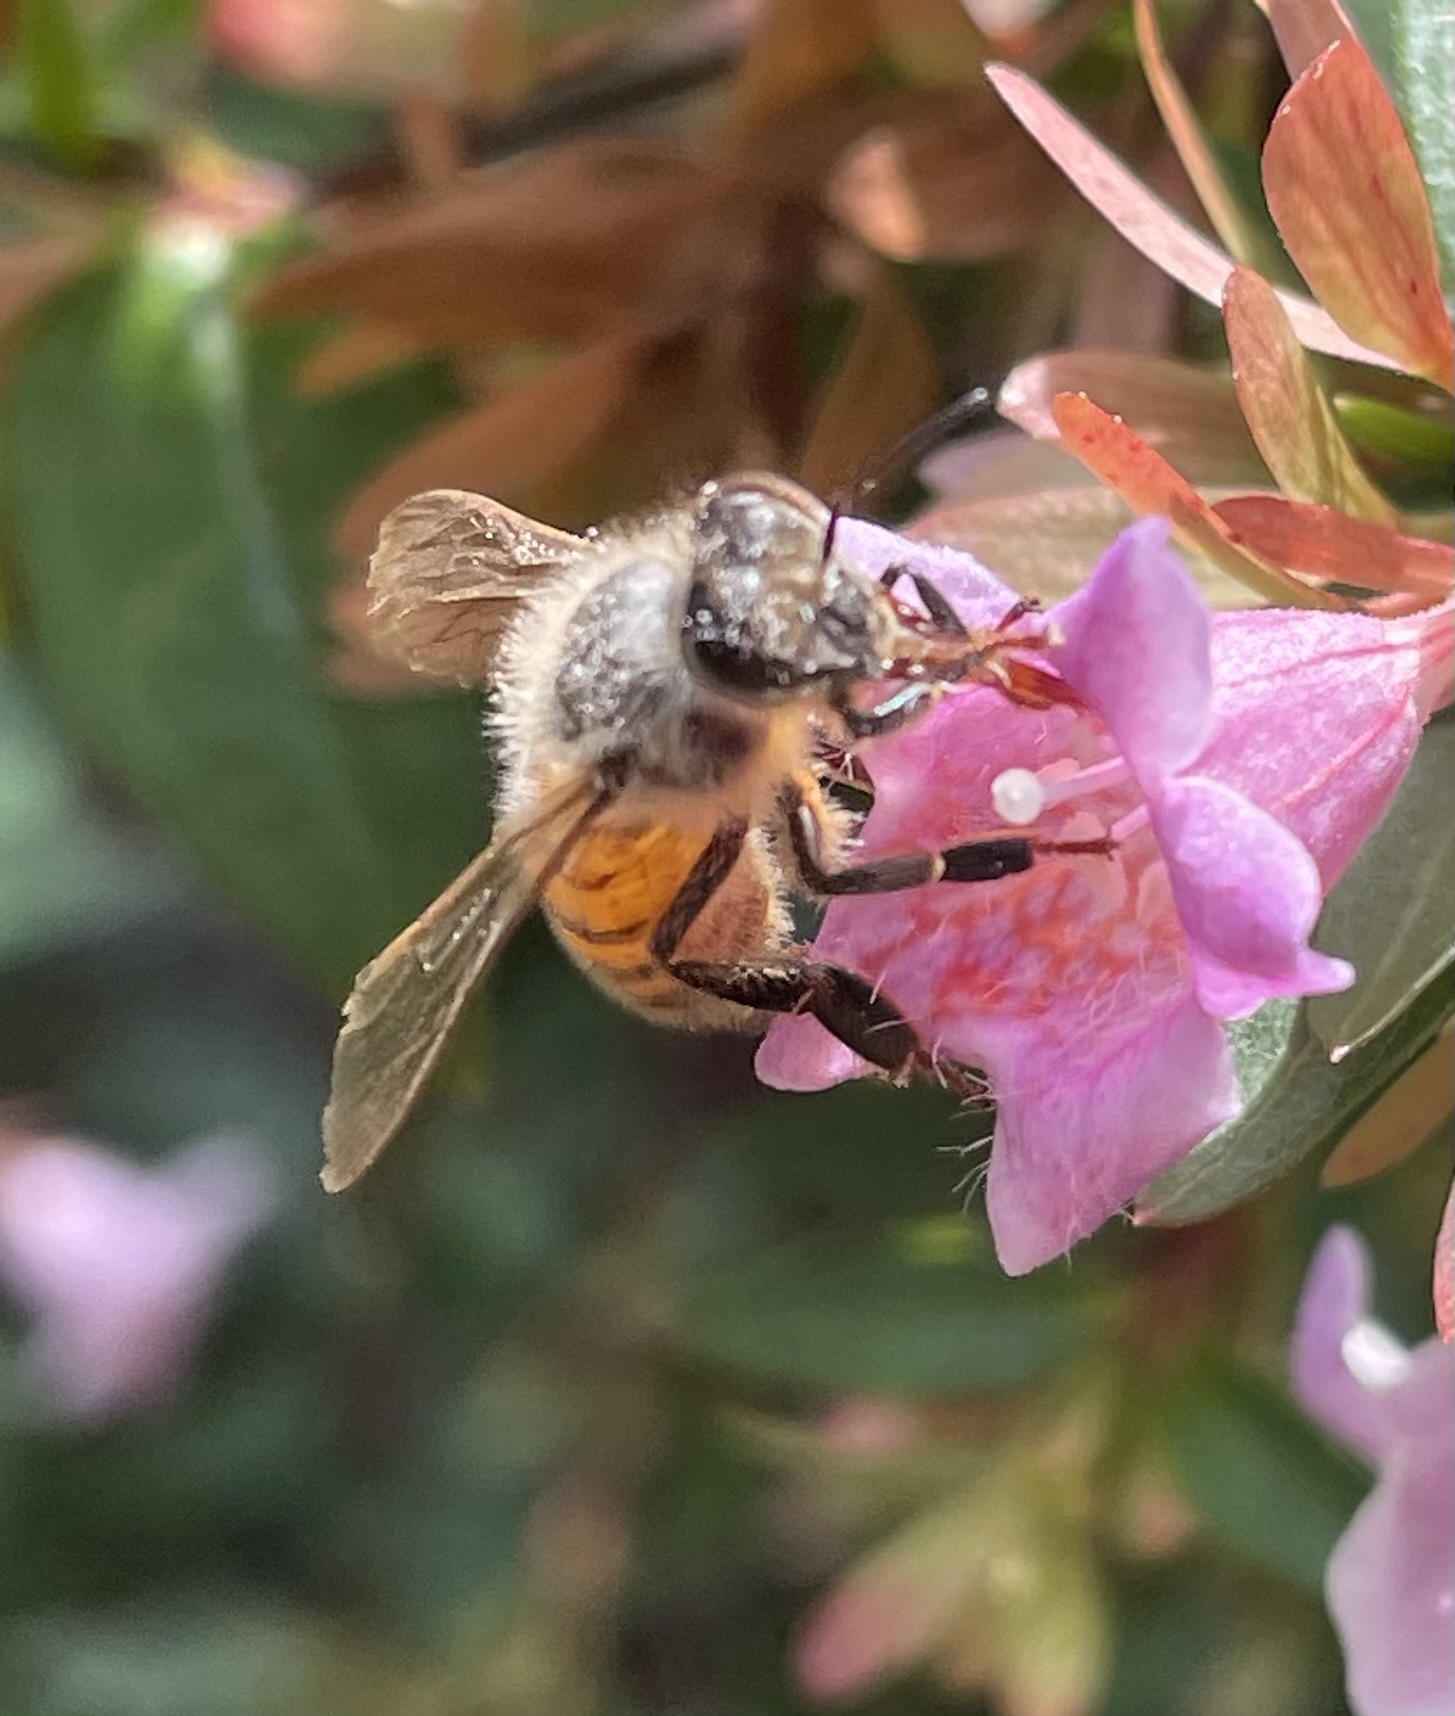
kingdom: Animalia
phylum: Arthropoda
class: Insecta
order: Hymenoptera
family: Apidae
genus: Apis
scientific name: Apis mellifera
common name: Honey bee
